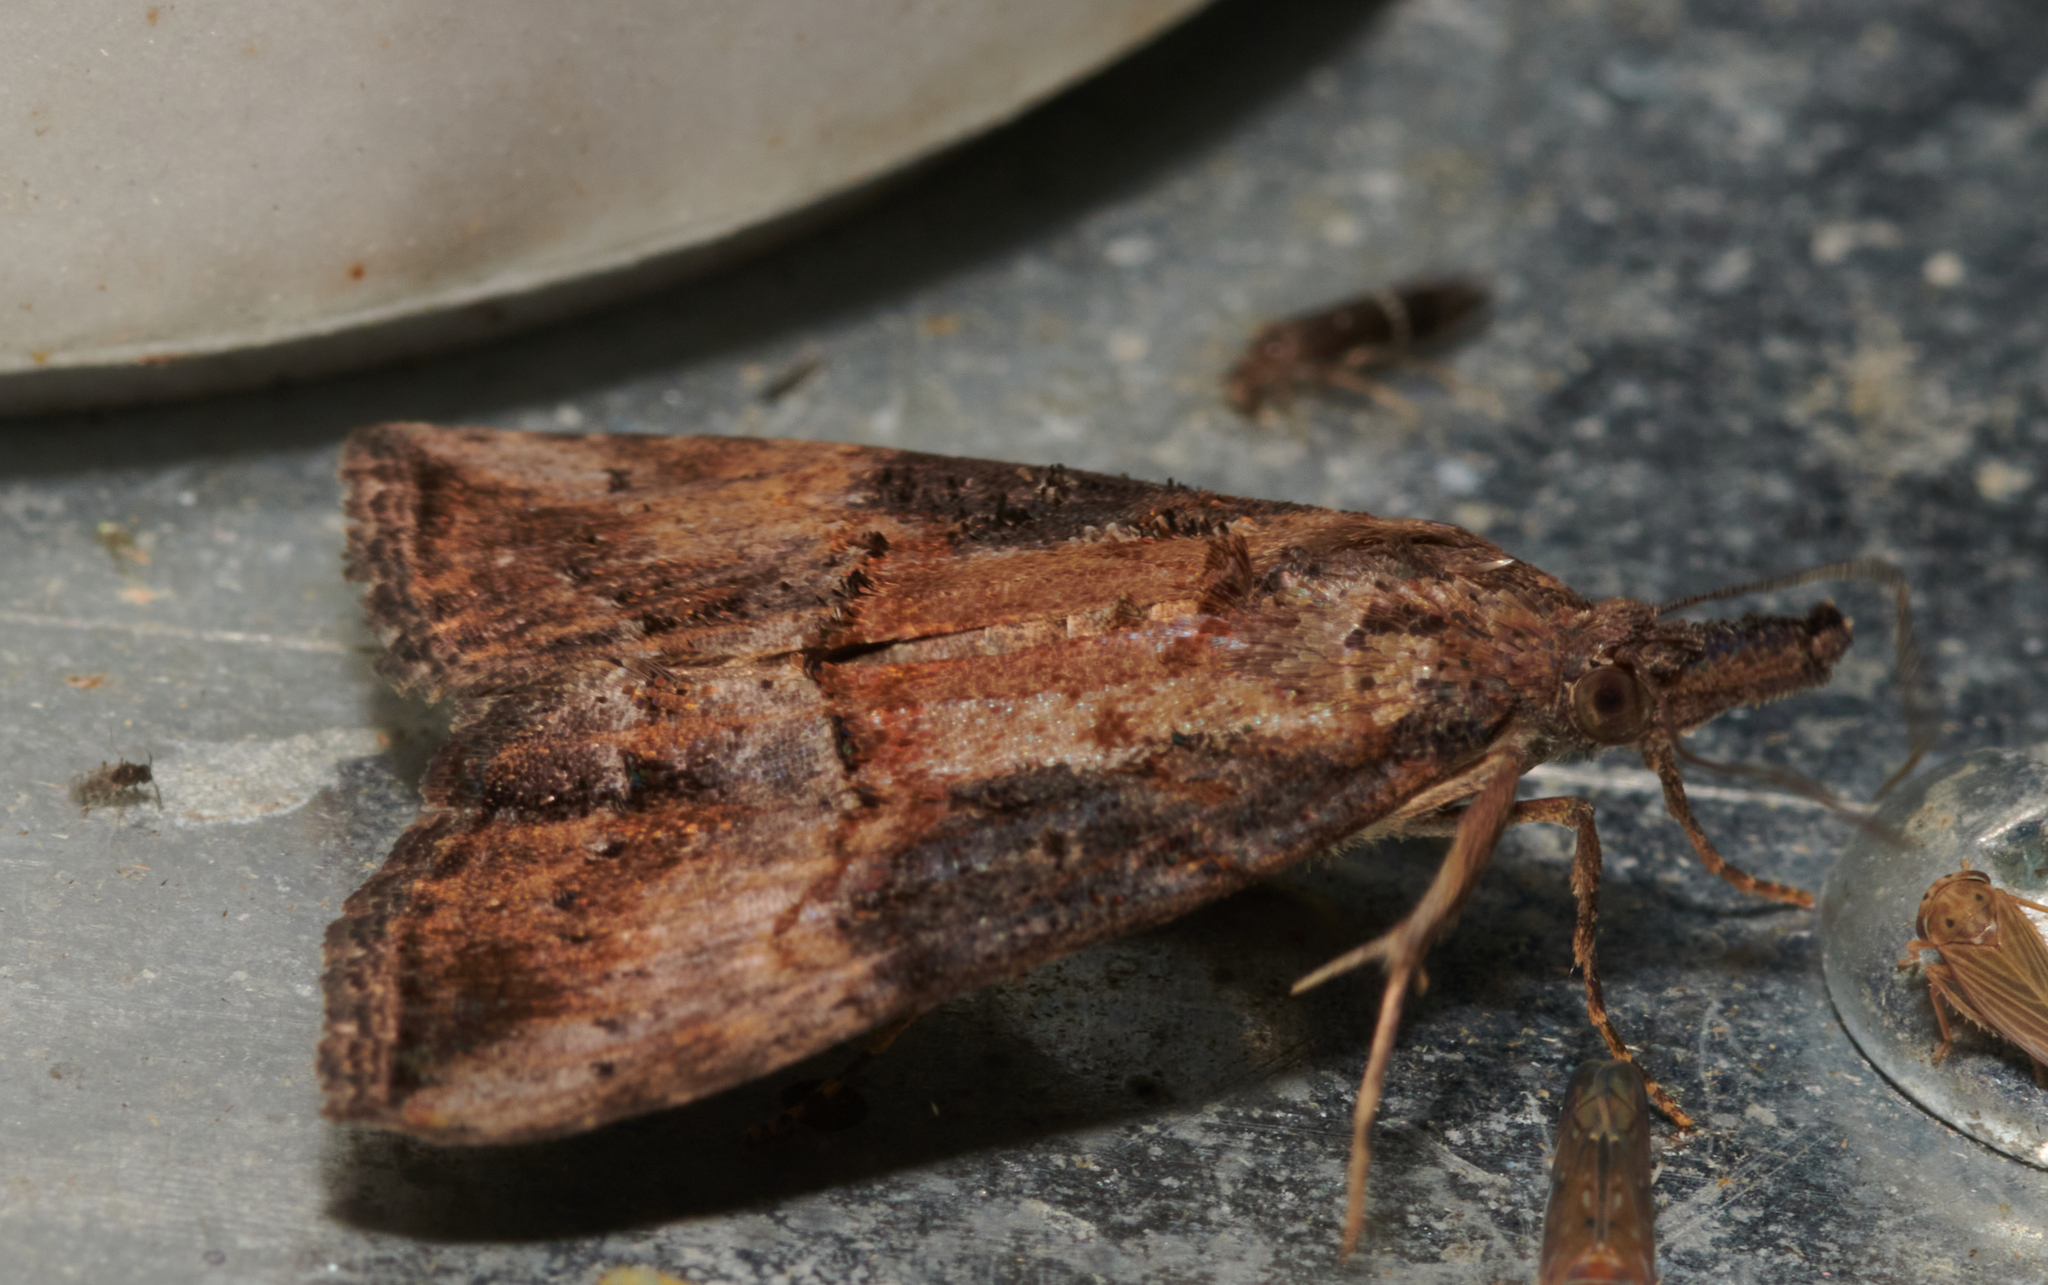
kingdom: Animalia
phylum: Arthropoda
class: Insecta
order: Lepidoptera
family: Erebidae
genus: Hypena
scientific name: Hypena scabra
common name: Green cloverworm
